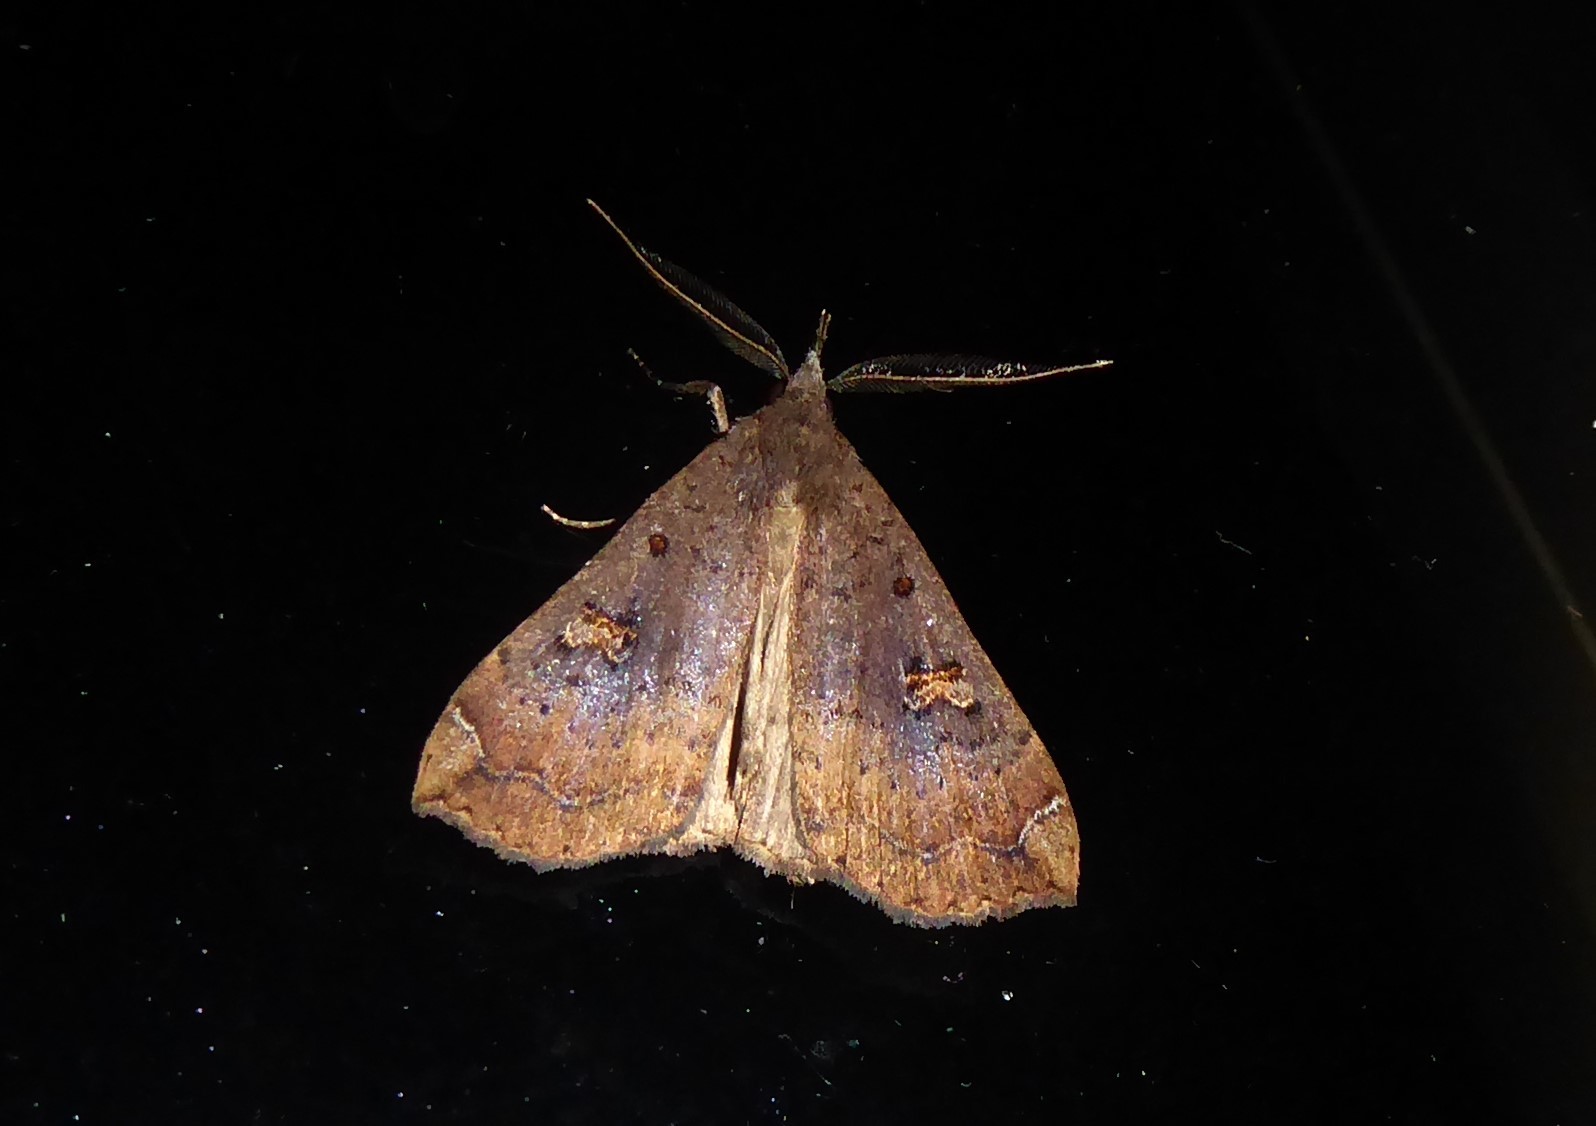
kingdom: Animalia
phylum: Arthropoda
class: Insecta
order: Lepidoptera
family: Erebidae
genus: Rhapsa
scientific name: Rhapsa scotosialis
